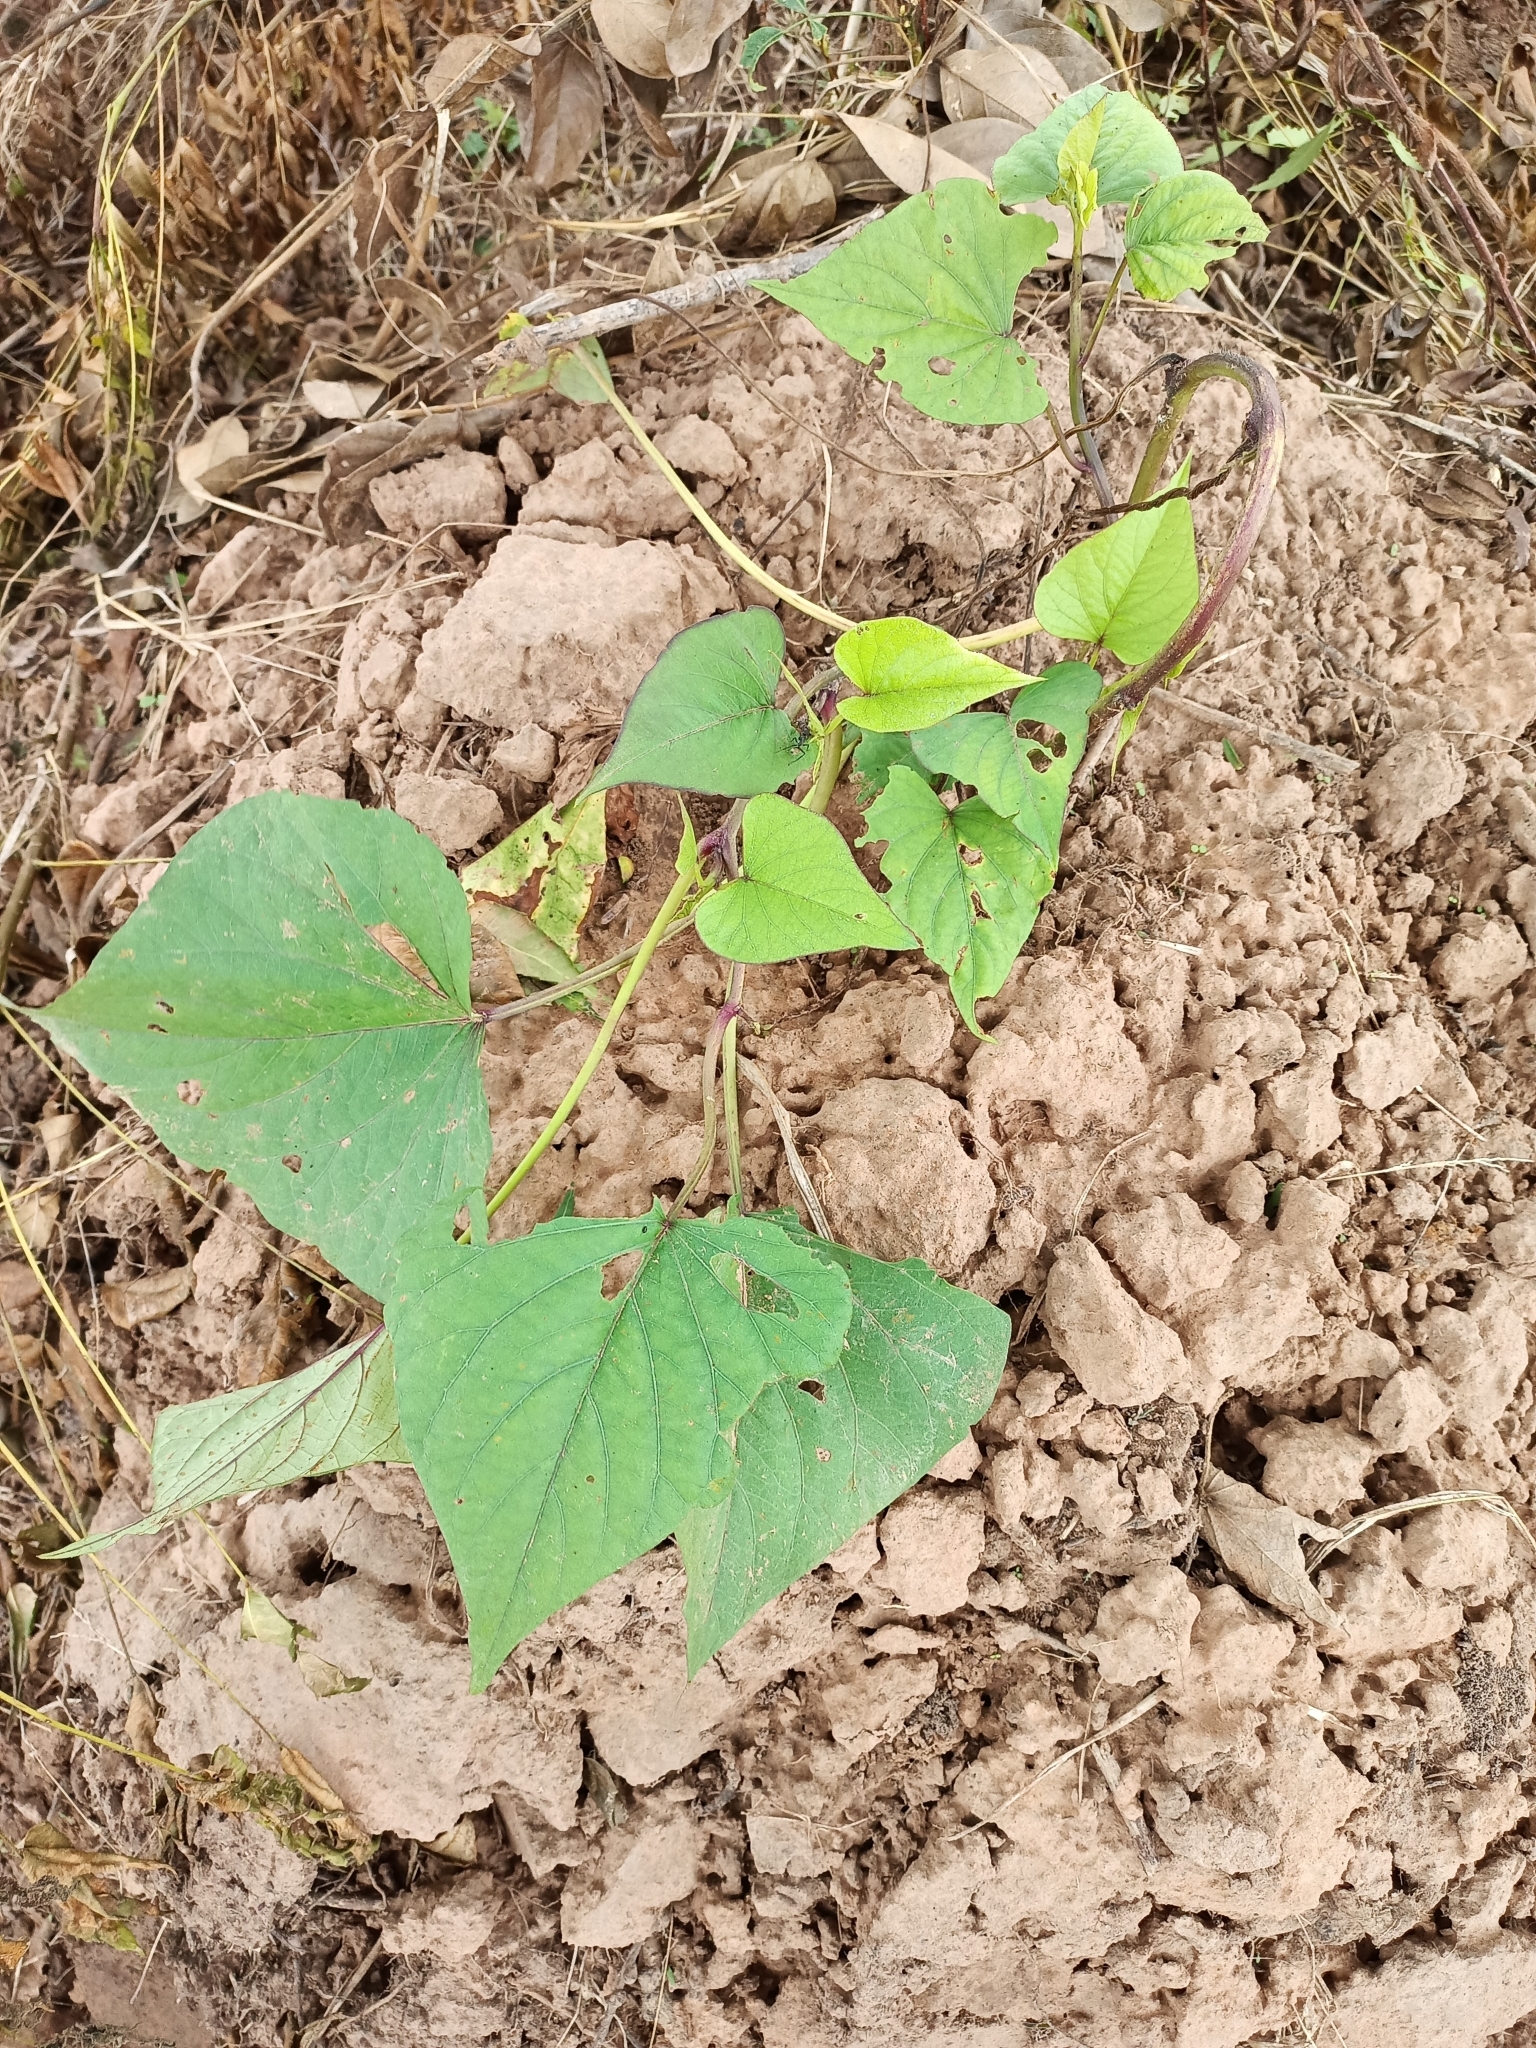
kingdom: Plantae
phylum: Tracheophyta
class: Magnoliopsida
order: Solanales
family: Convolvulaceae
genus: Ipomoea
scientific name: Ipomoea batatas
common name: Sweet-potato
